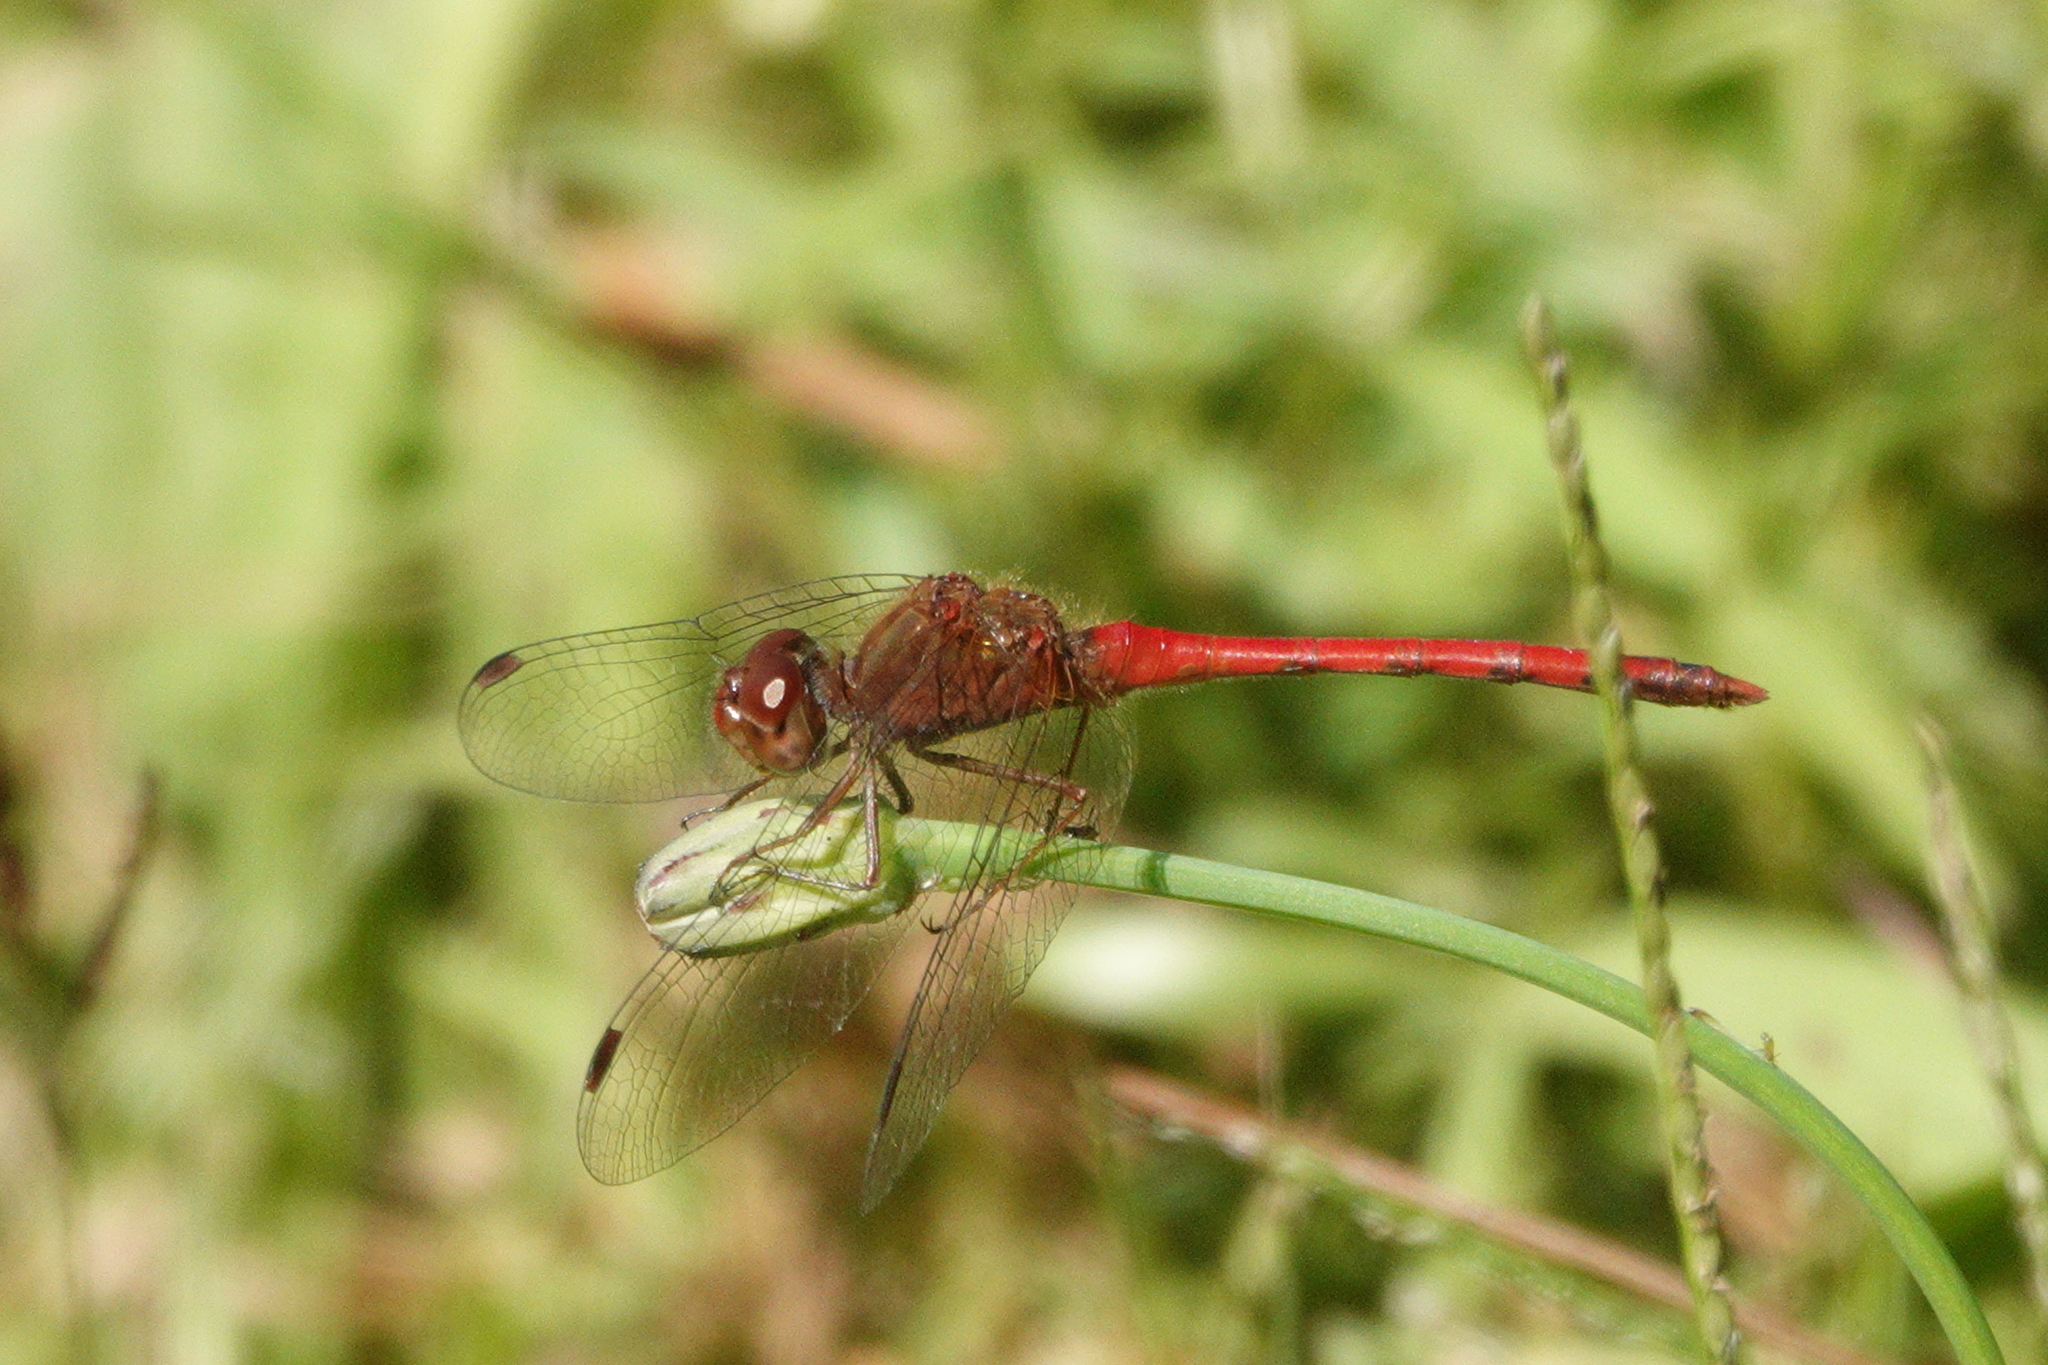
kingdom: Animalia
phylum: Arthropoda
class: Insecta
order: Odonata
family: Libellulidae
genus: Sympetrum
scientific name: Sympetrum vicinum
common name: Autumn meadowhawk
